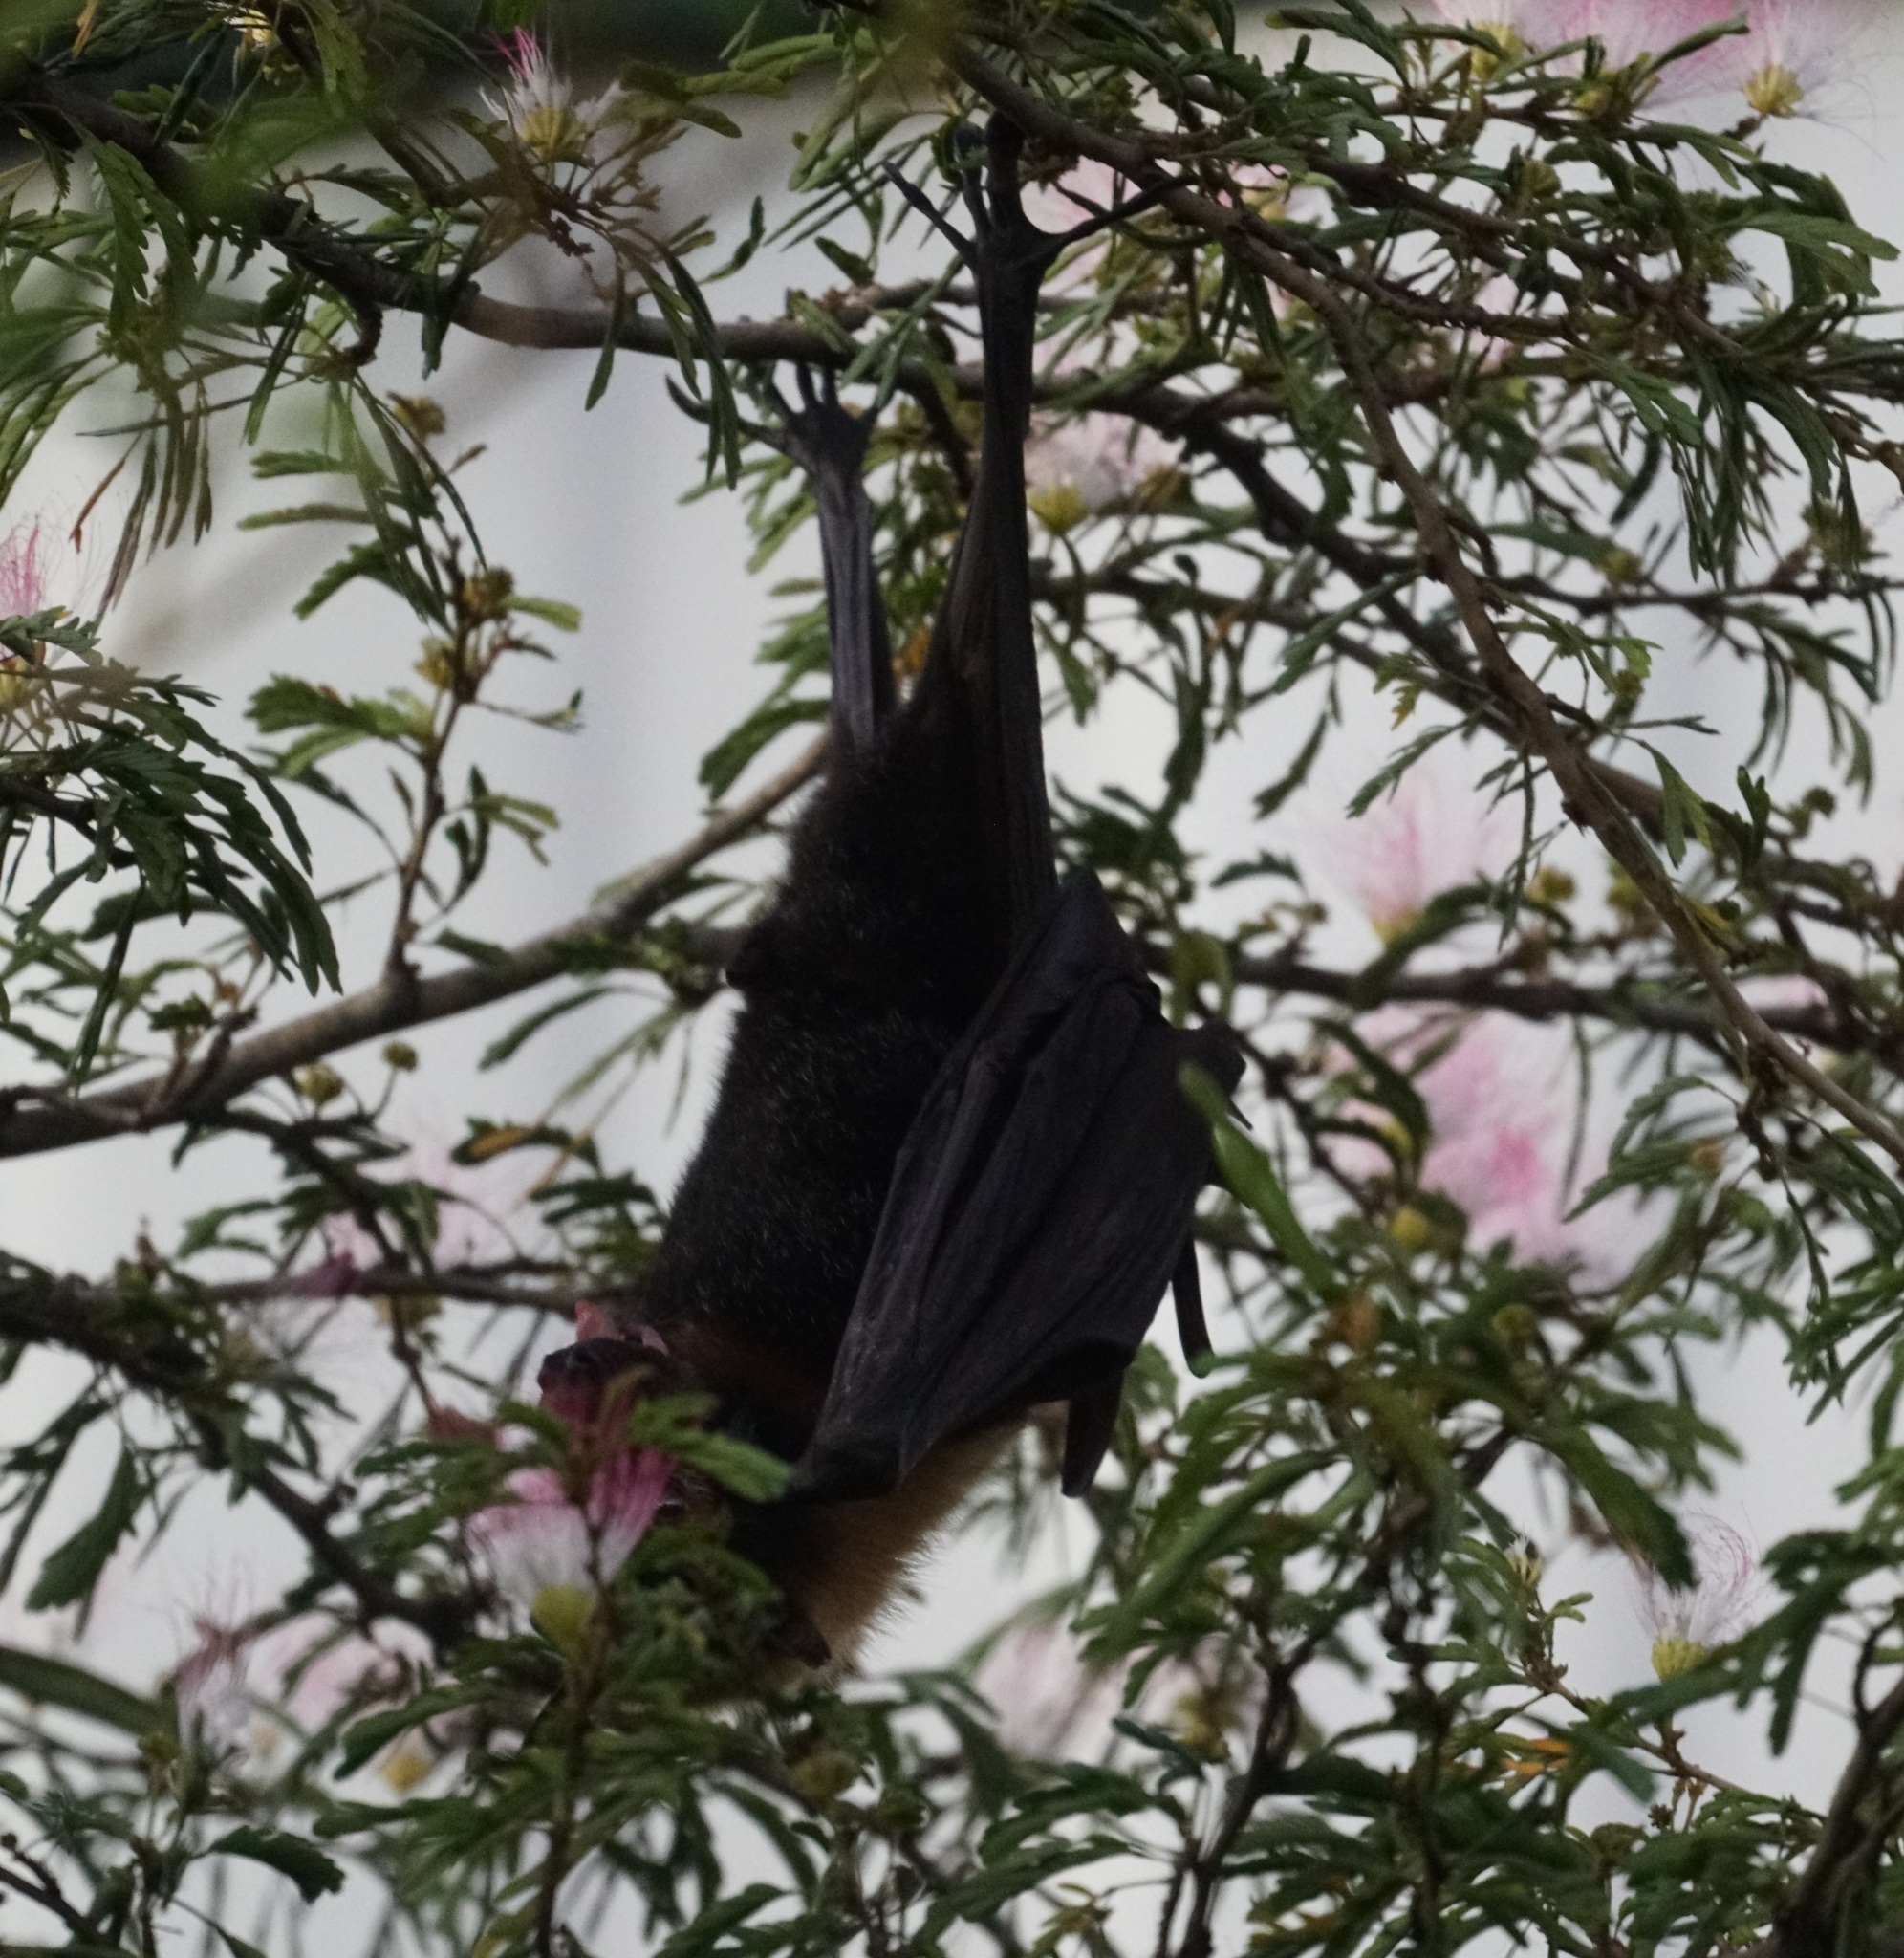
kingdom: Animalia
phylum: Chordata
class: Mammalia
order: Chiroptera
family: Pteropodidae
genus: Pteropus
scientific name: Pteropus conspicillatus
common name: Spectacled flying fox
